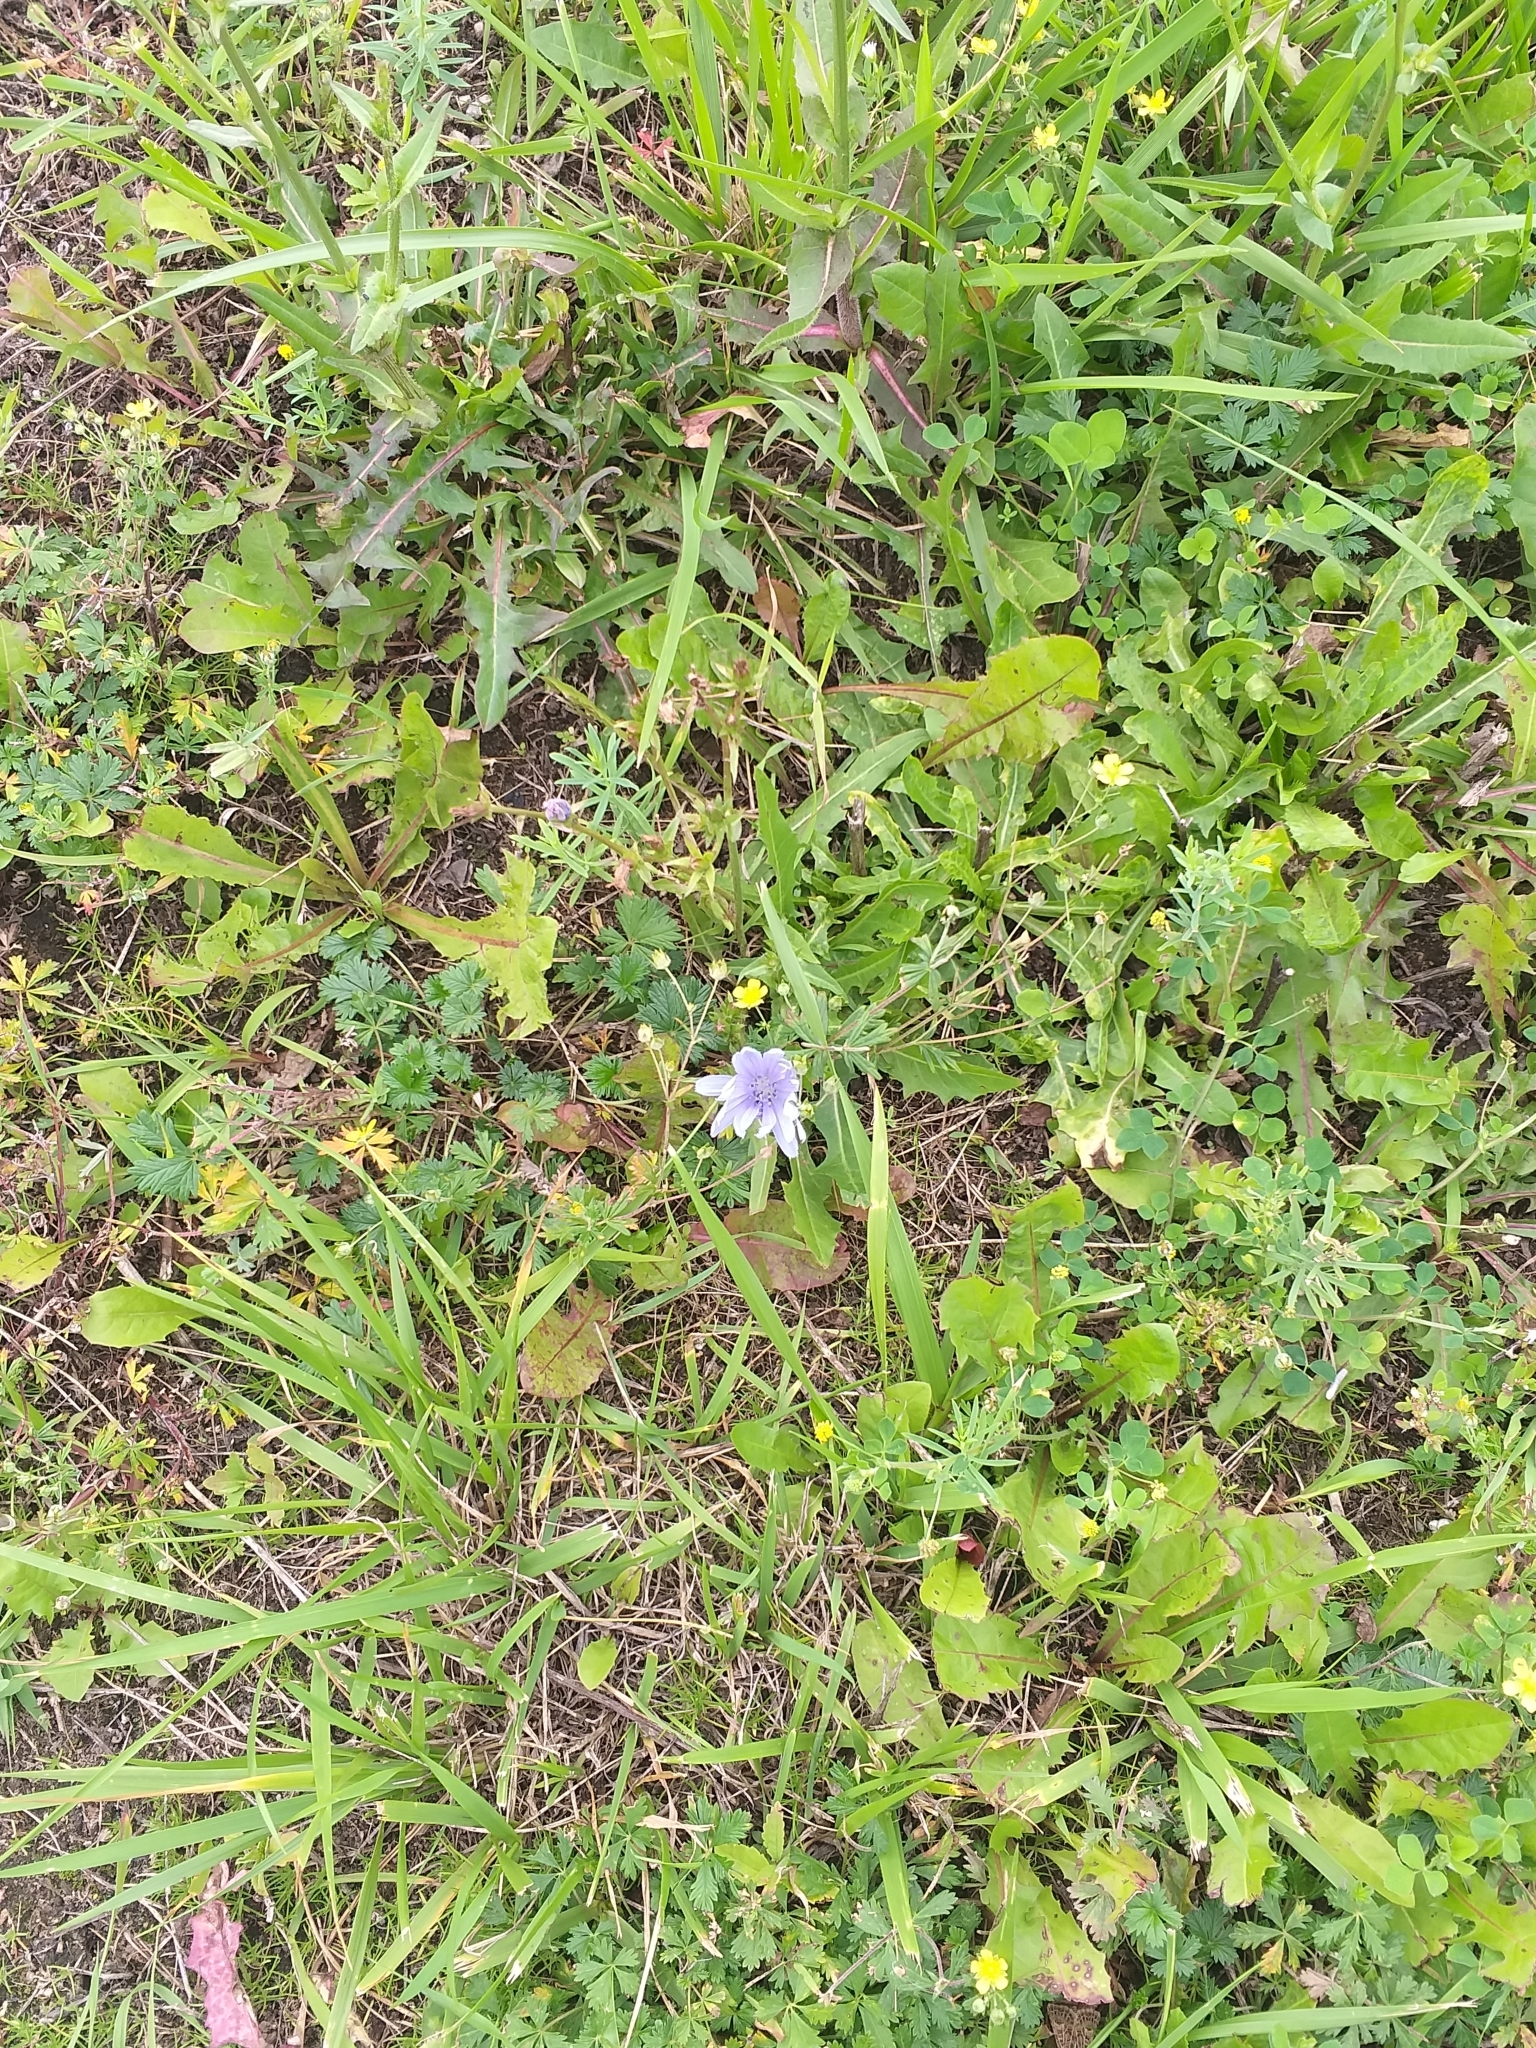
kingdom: Plantae
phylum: Tracheophyta
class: Magnoliopsida
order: Asterales
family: Asteraceae
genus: Cichorium
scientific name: Cichorium intybus
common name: Chicory
